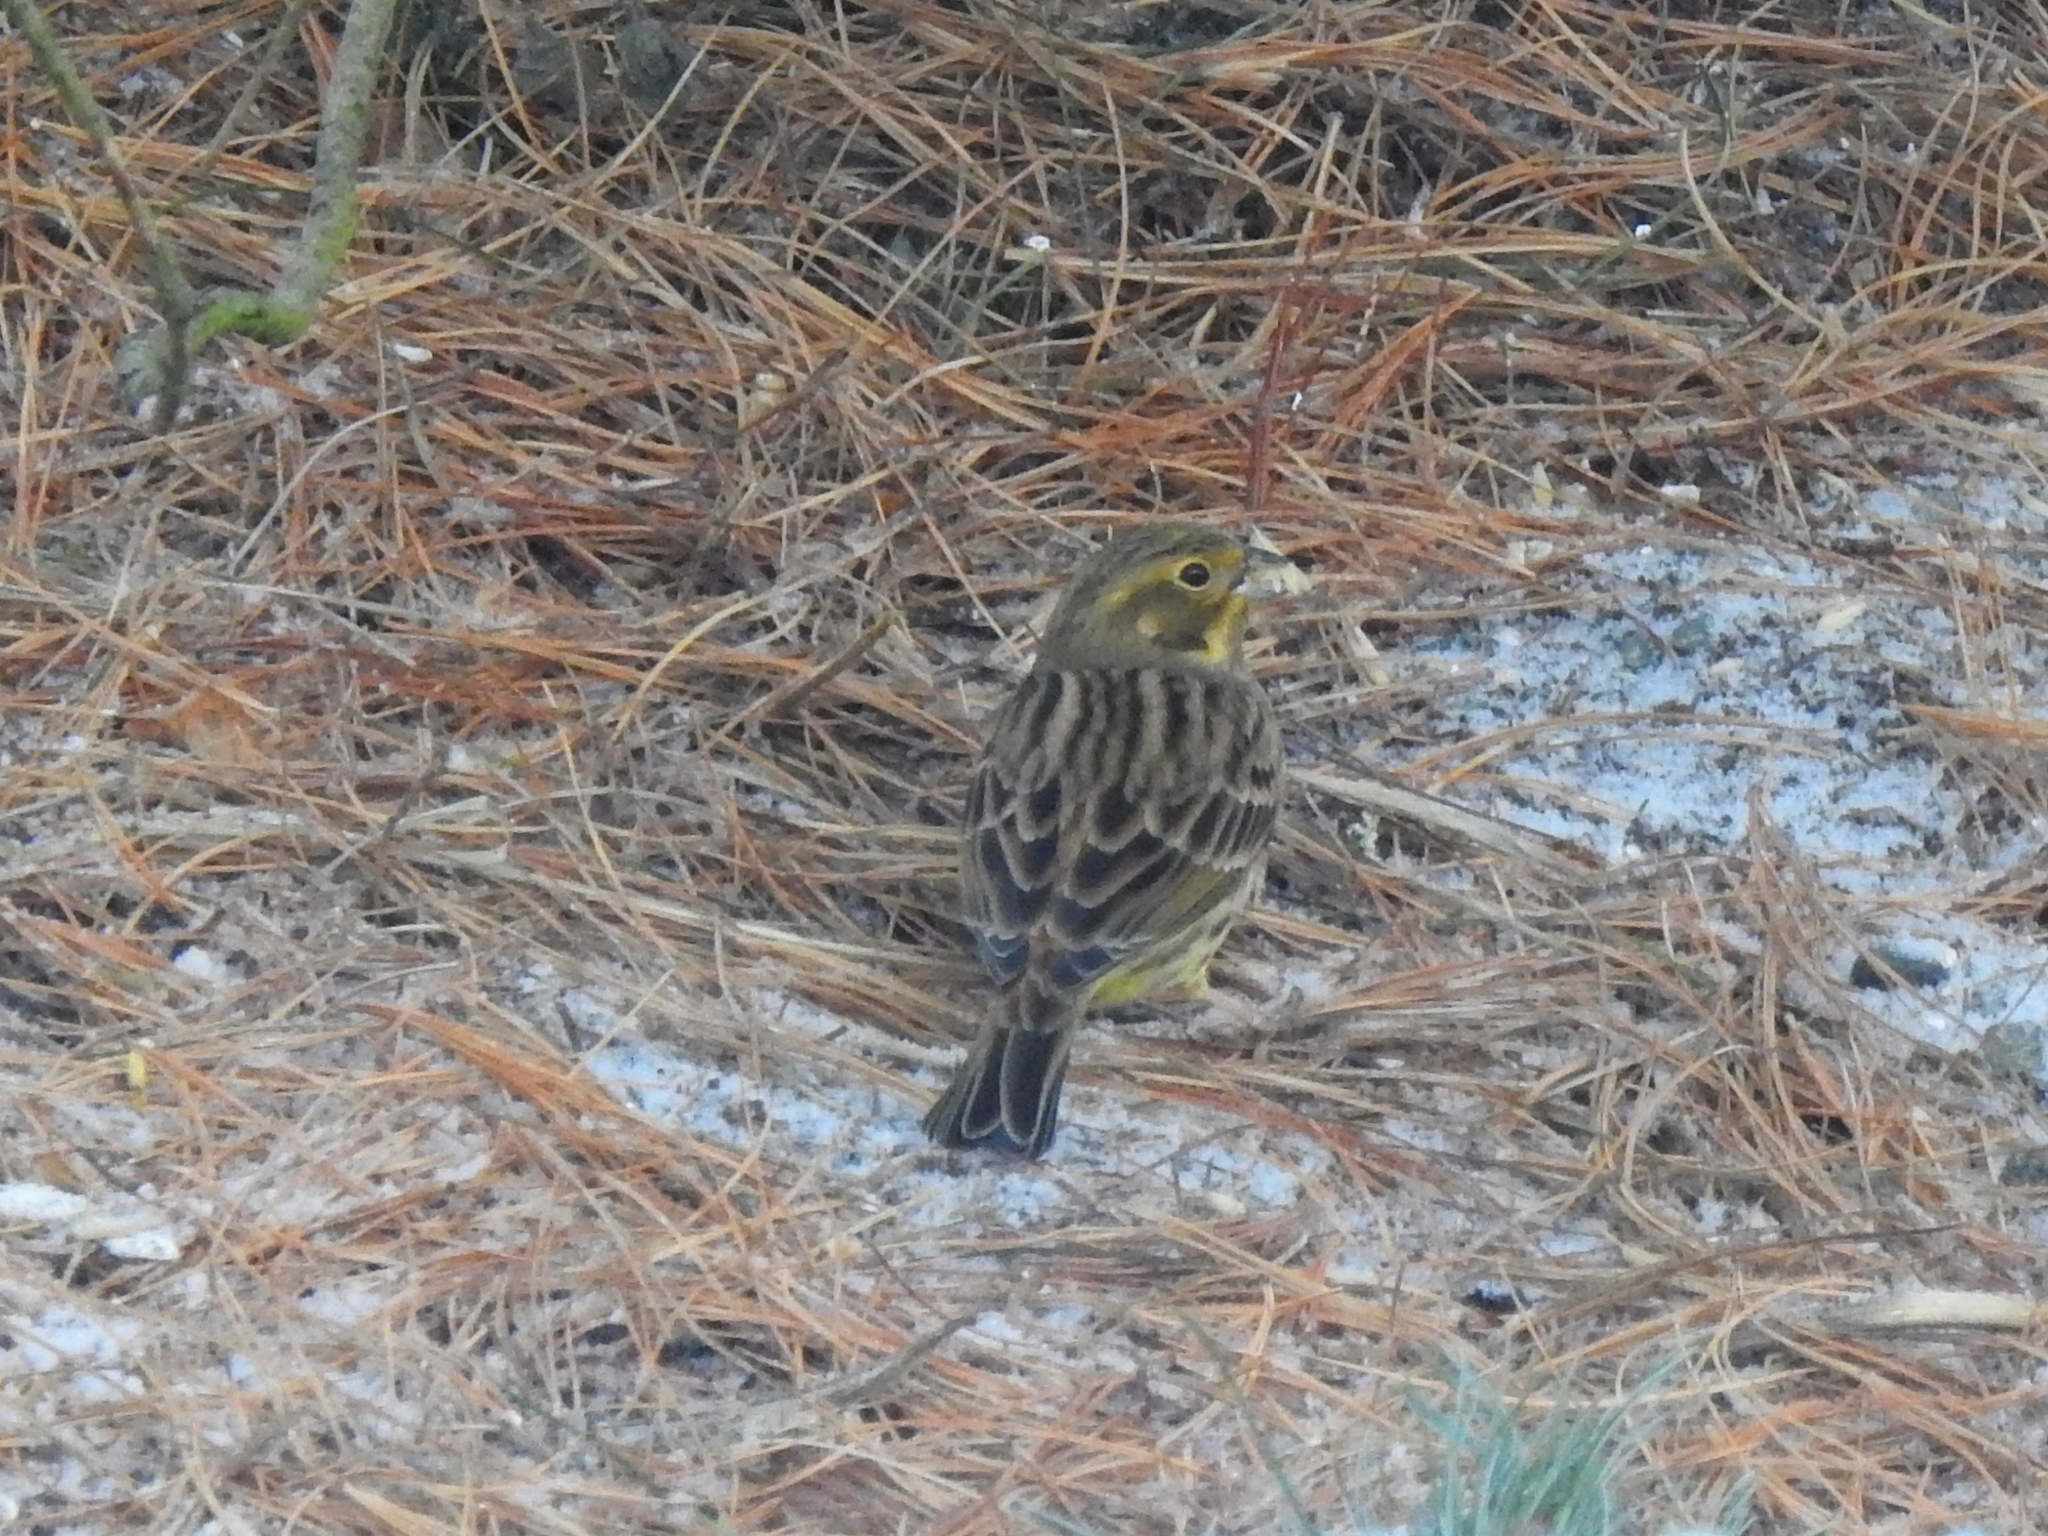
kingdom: Animalia
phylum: Chordata
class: Aves
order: Passeriformes
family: Emberizidae
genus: Emberiza
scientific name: Emberiza citrinella
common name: Yellowhammer
